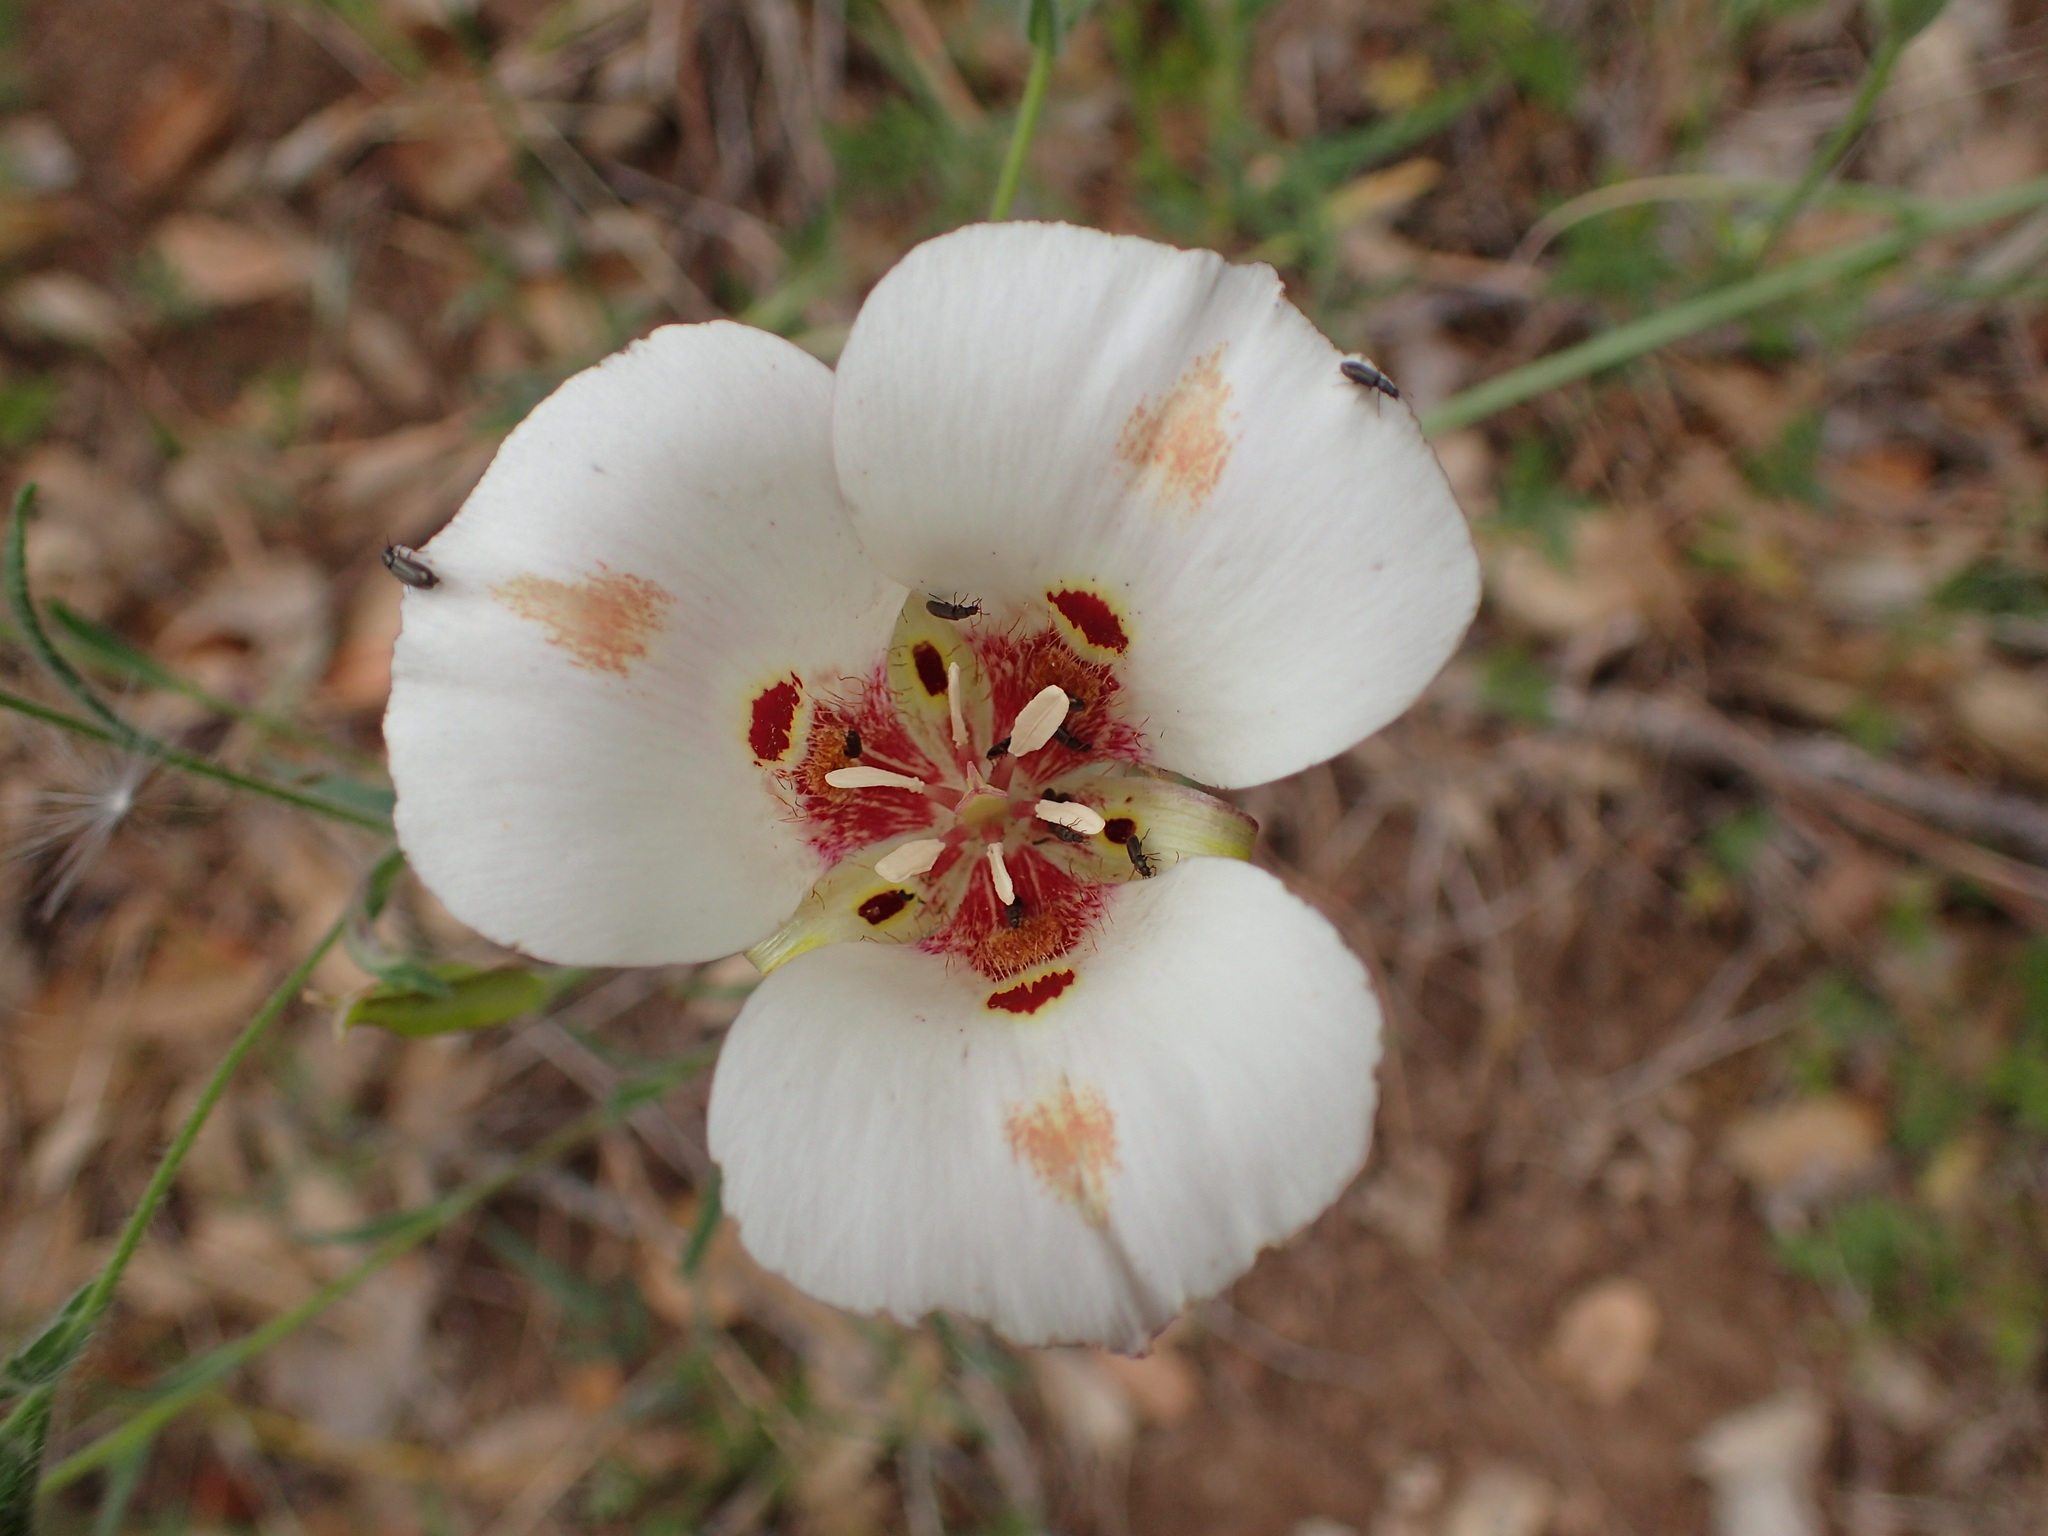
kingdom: Plantae
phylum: Tracheophyta
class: Liliopsida
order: Liliales
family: Liliaceae
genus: Calochortus
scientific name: Calochortus venustus
